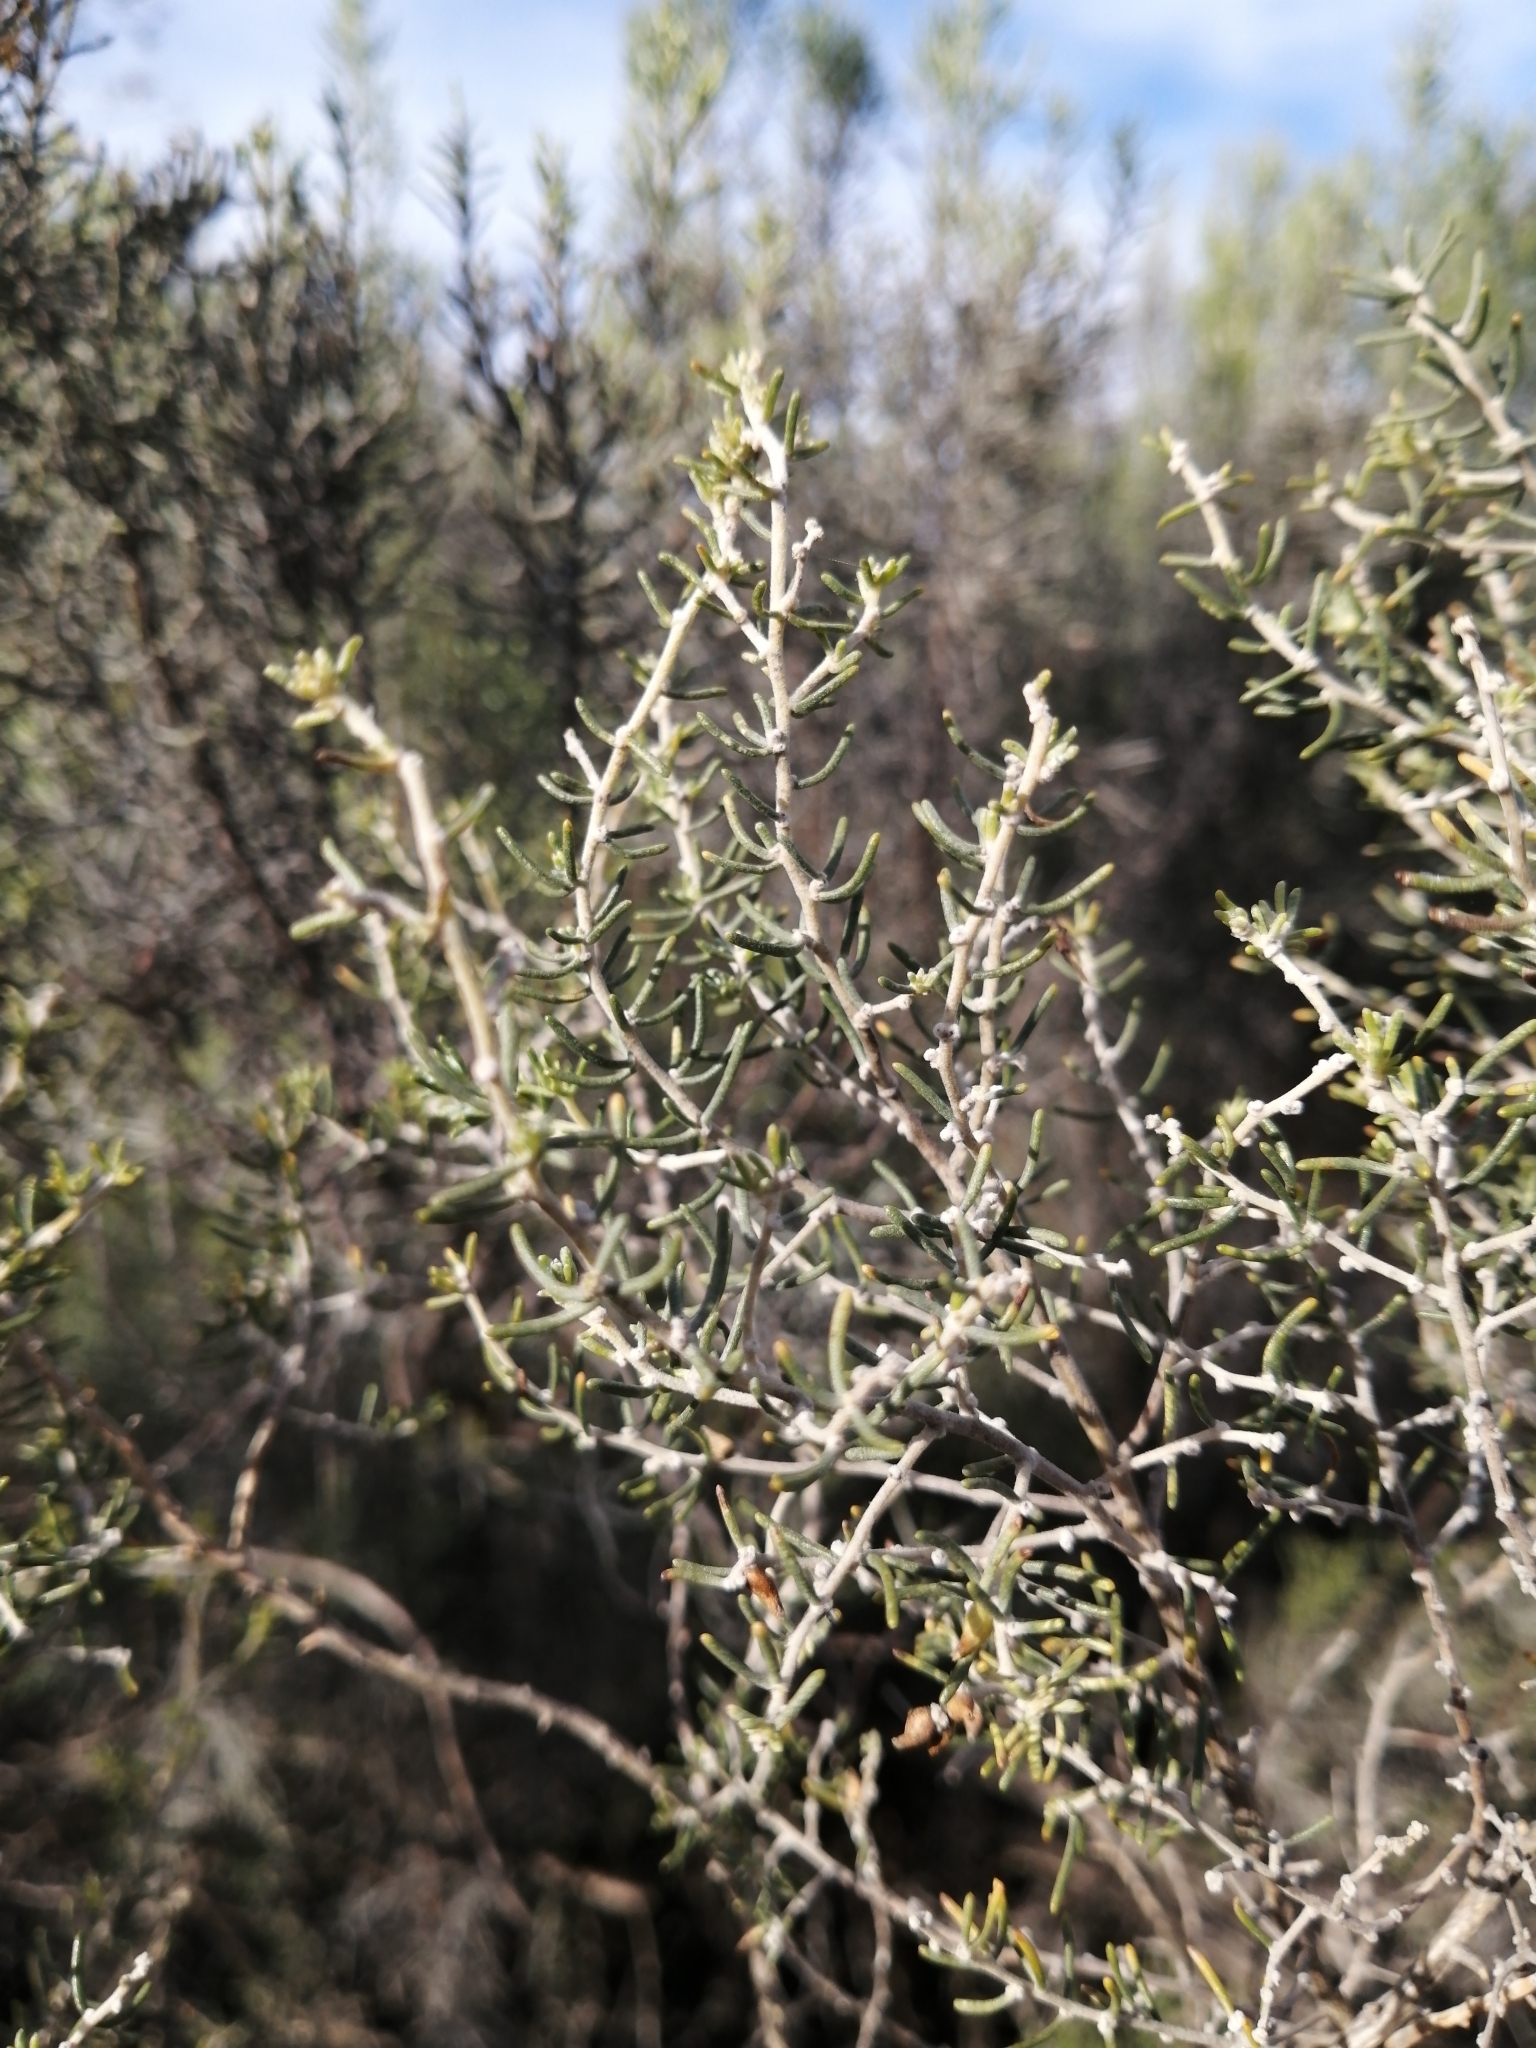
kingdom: Plantae
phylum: Tracheophyta
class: Magnoliopsida
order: Fabales
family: Fabaceae
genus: Aspalathus
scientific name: Aspalathus lactea
